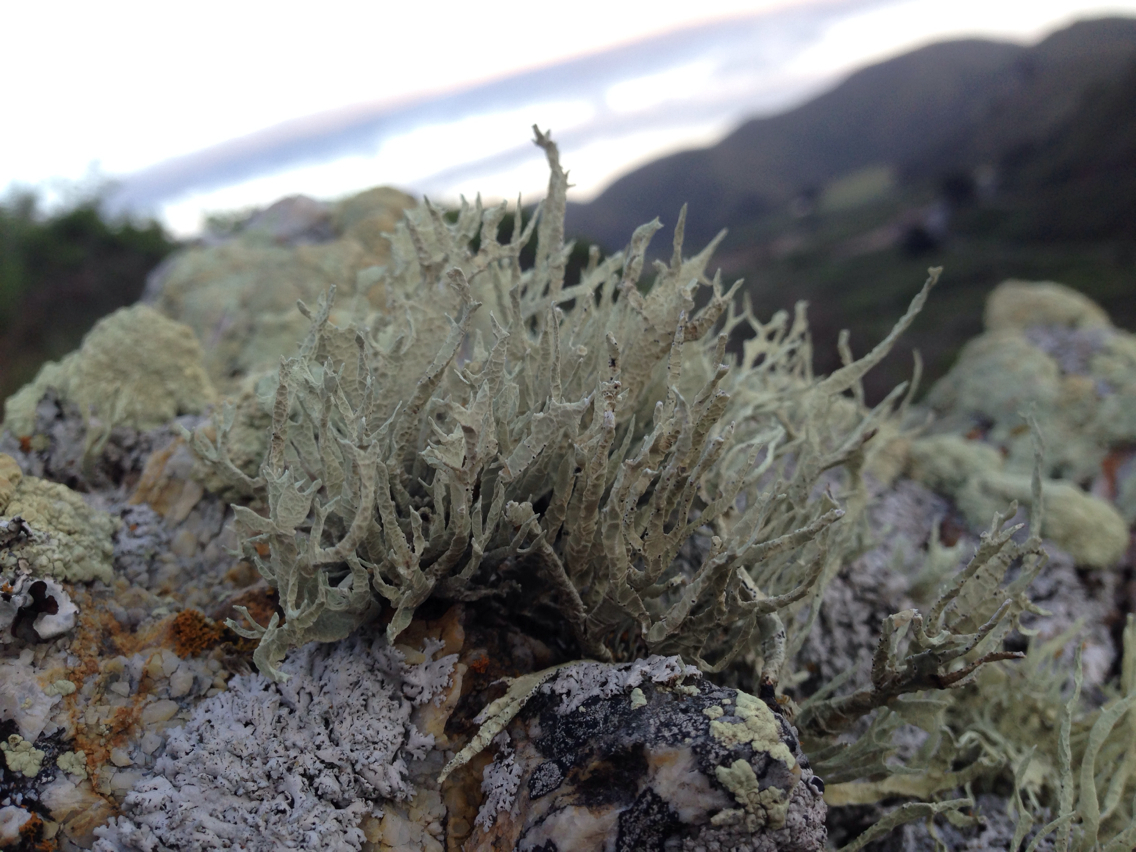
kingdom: Fungi
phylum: Ascomycota
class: Lecanoromycetes
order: Lecanorales
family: Ramalinaceae
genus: Niebla
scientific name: Niebla homalea
